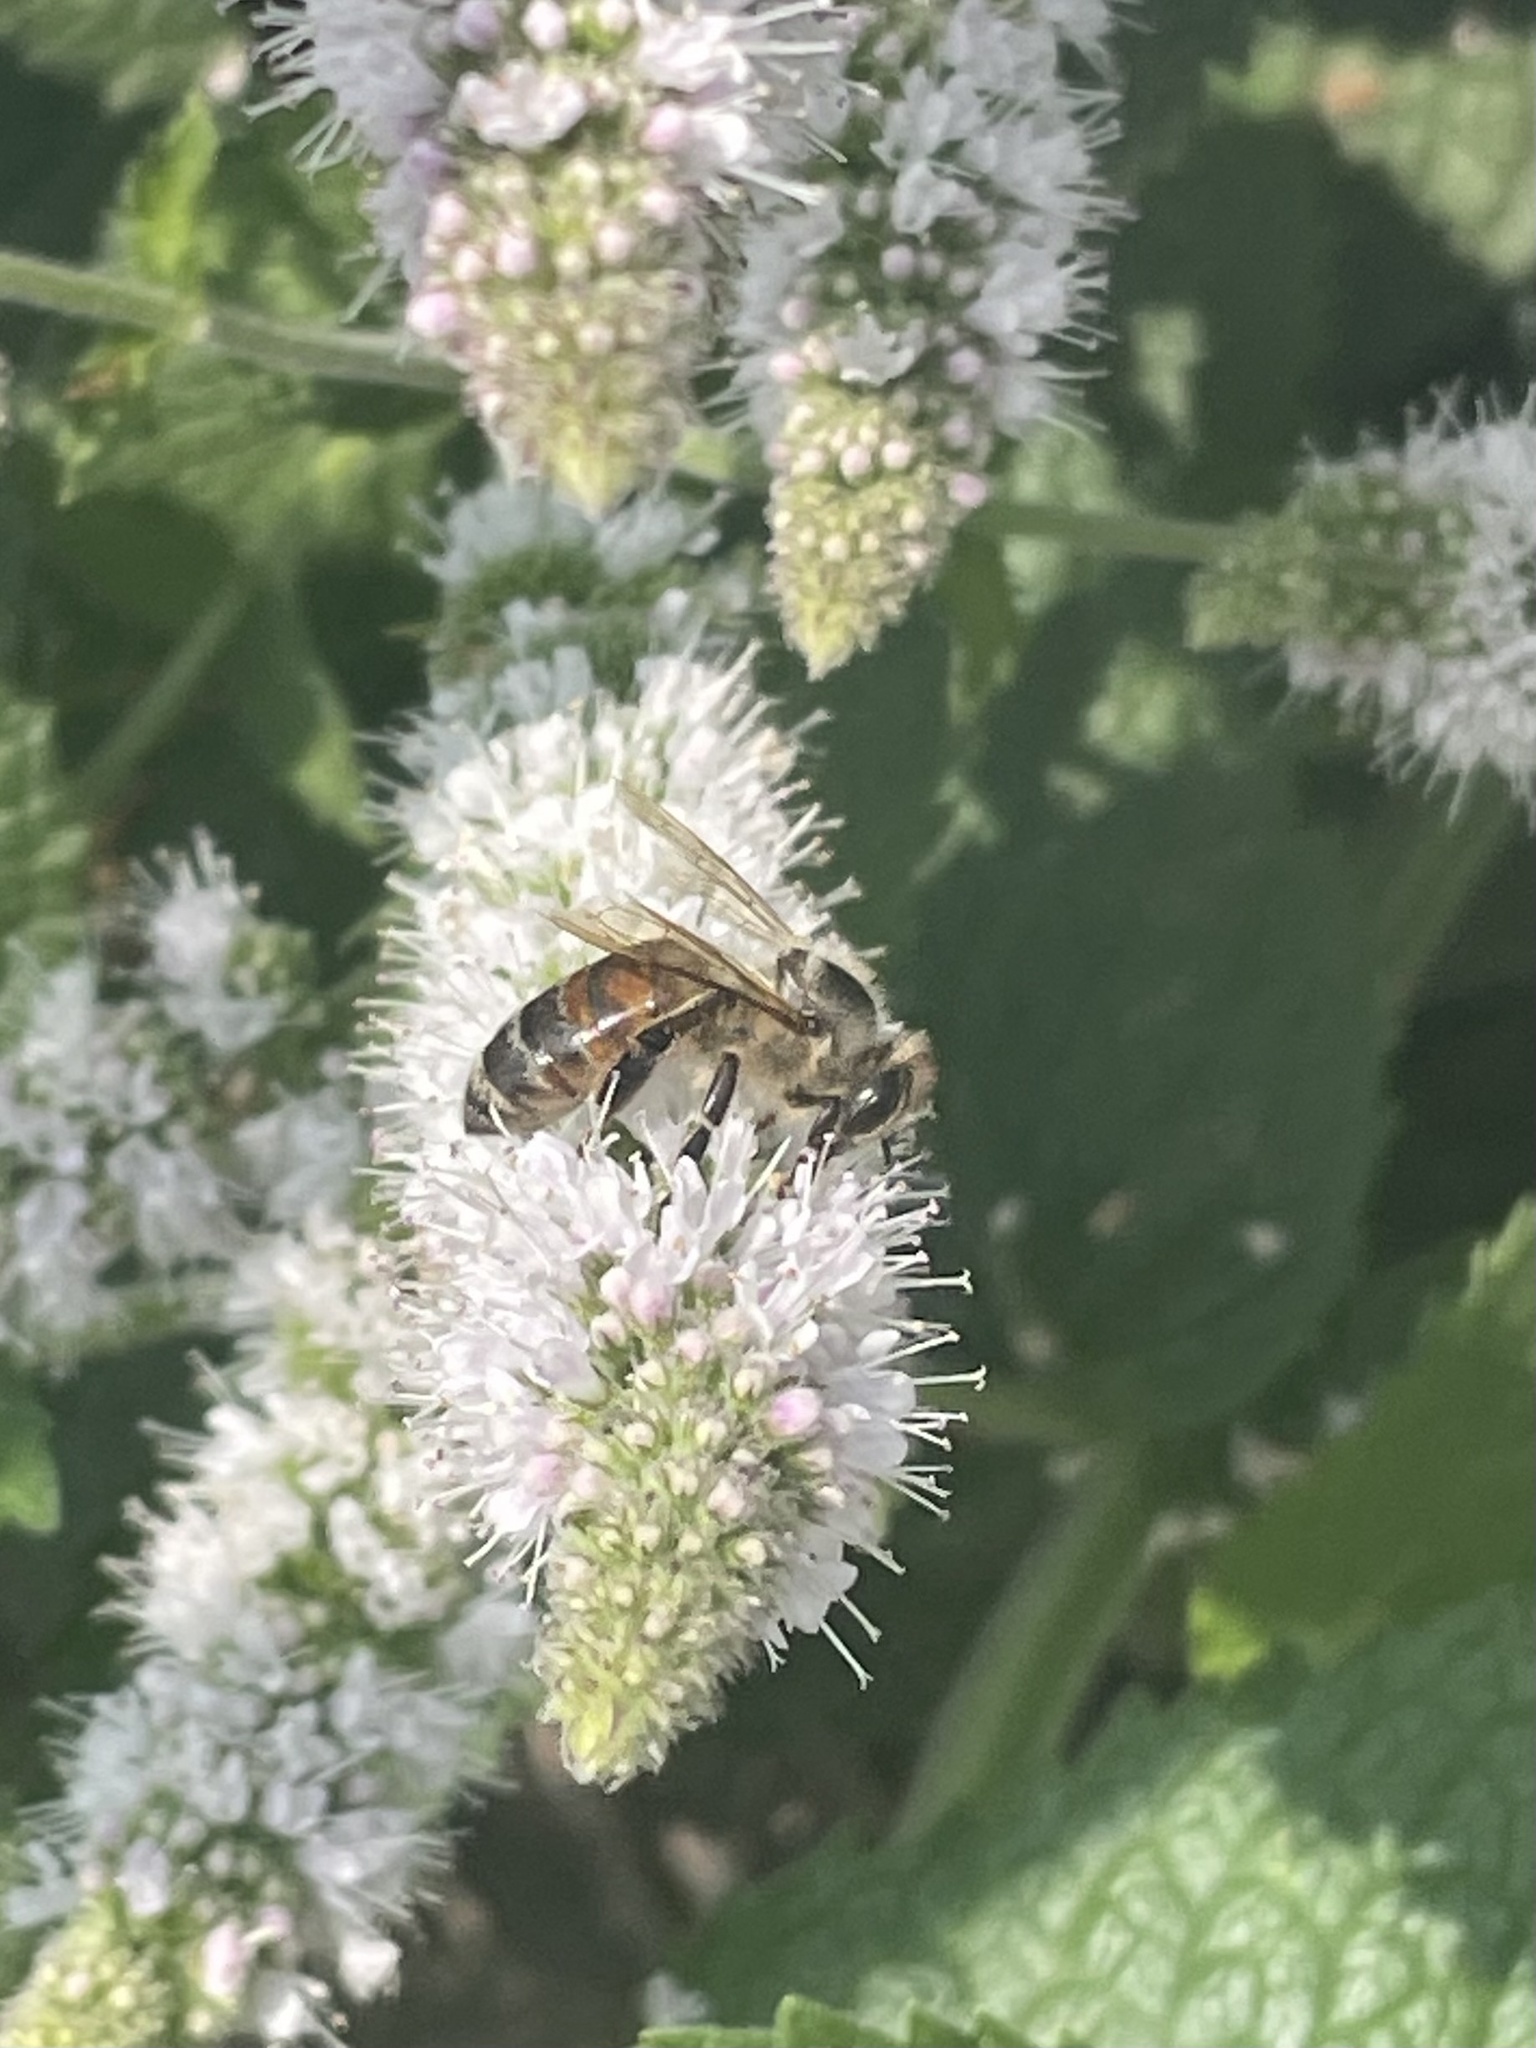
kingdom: Animalia
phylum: Arthropoda
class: Insecta
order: Hymenoptera
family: Apidae
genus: Apis
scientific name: Apis mellifera
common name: Honey bee
